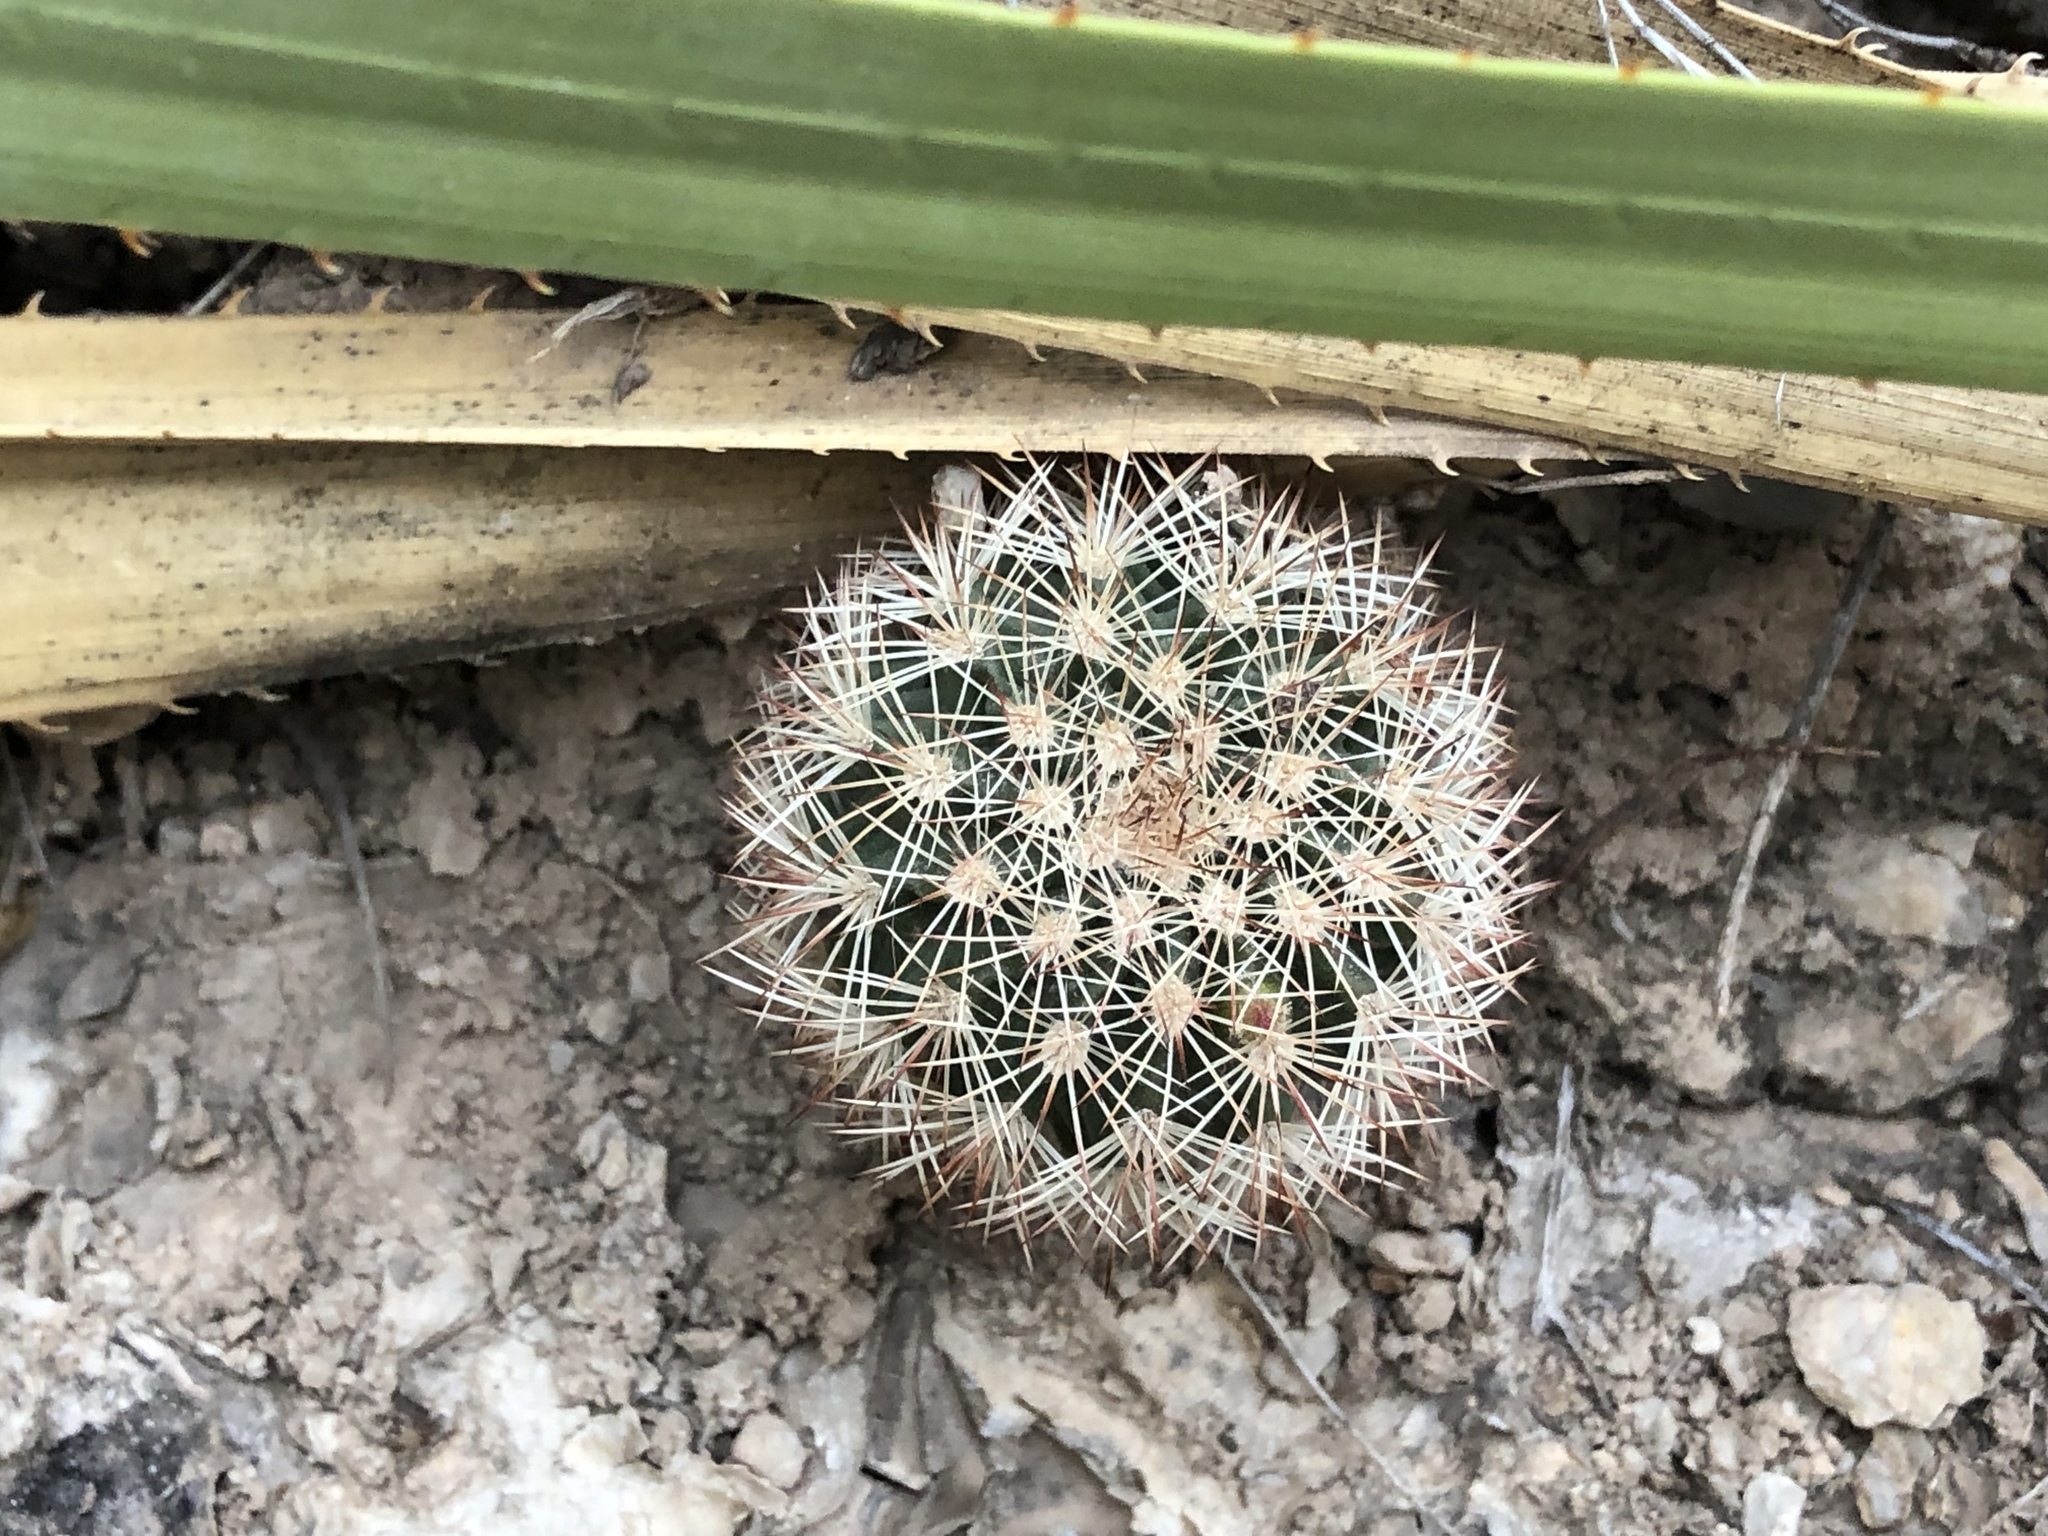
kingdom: Plantae
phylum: Tracheophyta
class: Magnoliopsida
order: Caryophyllales
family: Cactaceae
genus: Echinocereus
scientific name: Echinocereus dasyacanthus
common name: Spiny hedgehog cactus
